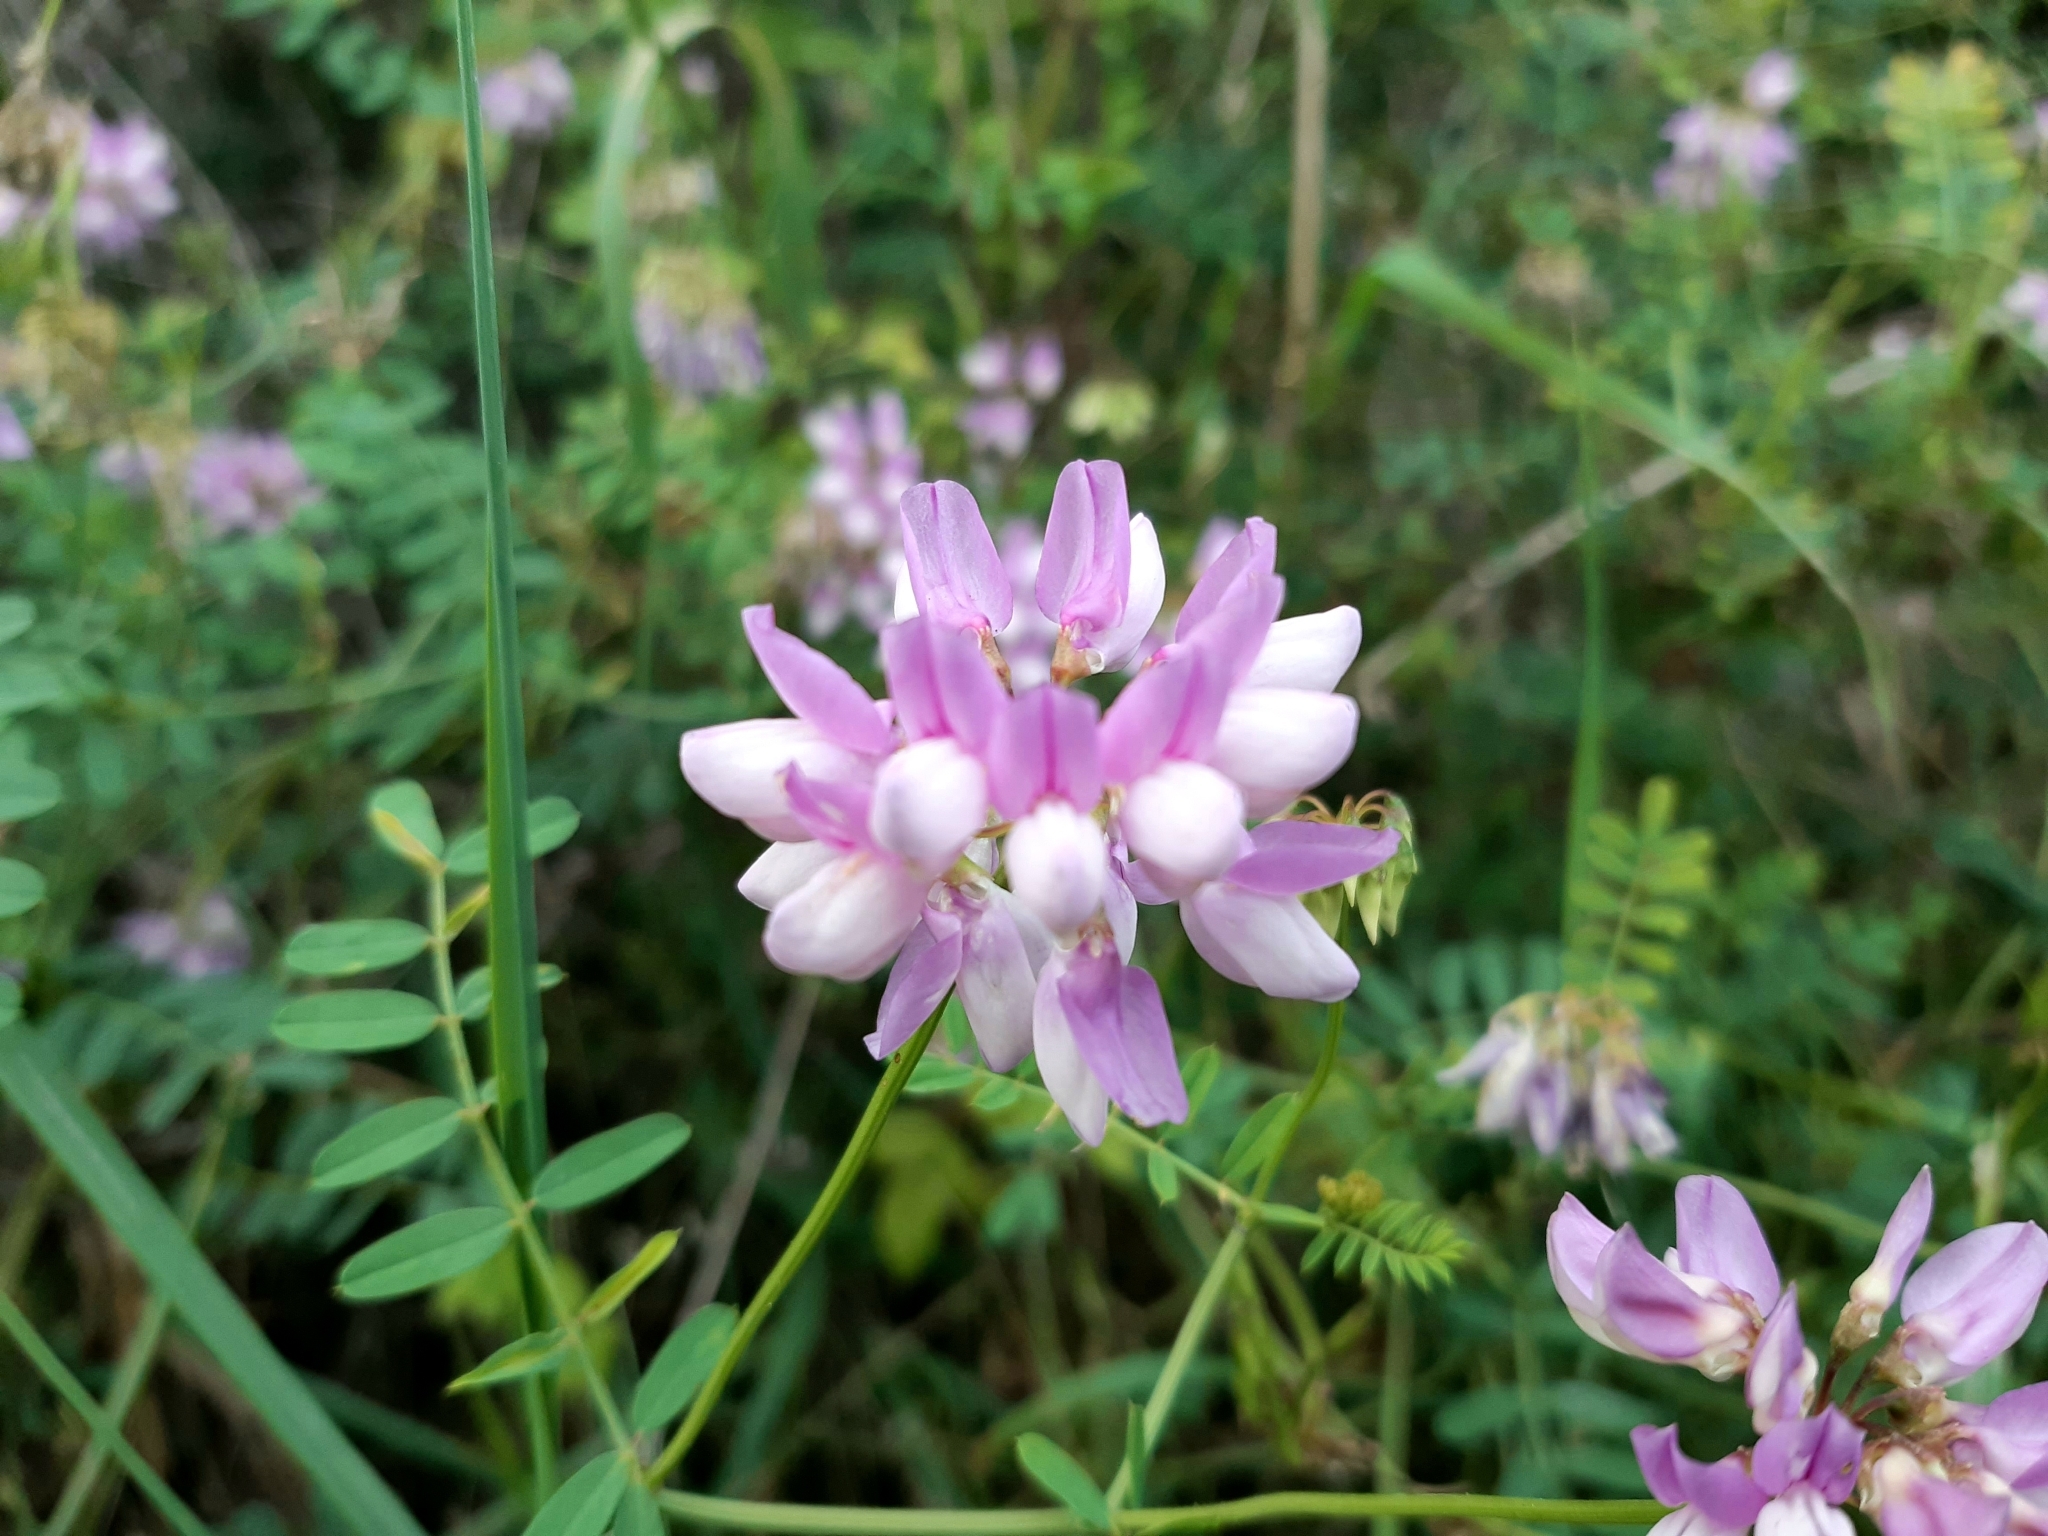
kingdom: Plantae
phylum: Tracheophyta
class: Magnoliopsida
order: Fabales
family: Fabaceae
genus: Coronilla
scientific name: Coronilla varia
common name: Crownvetch
